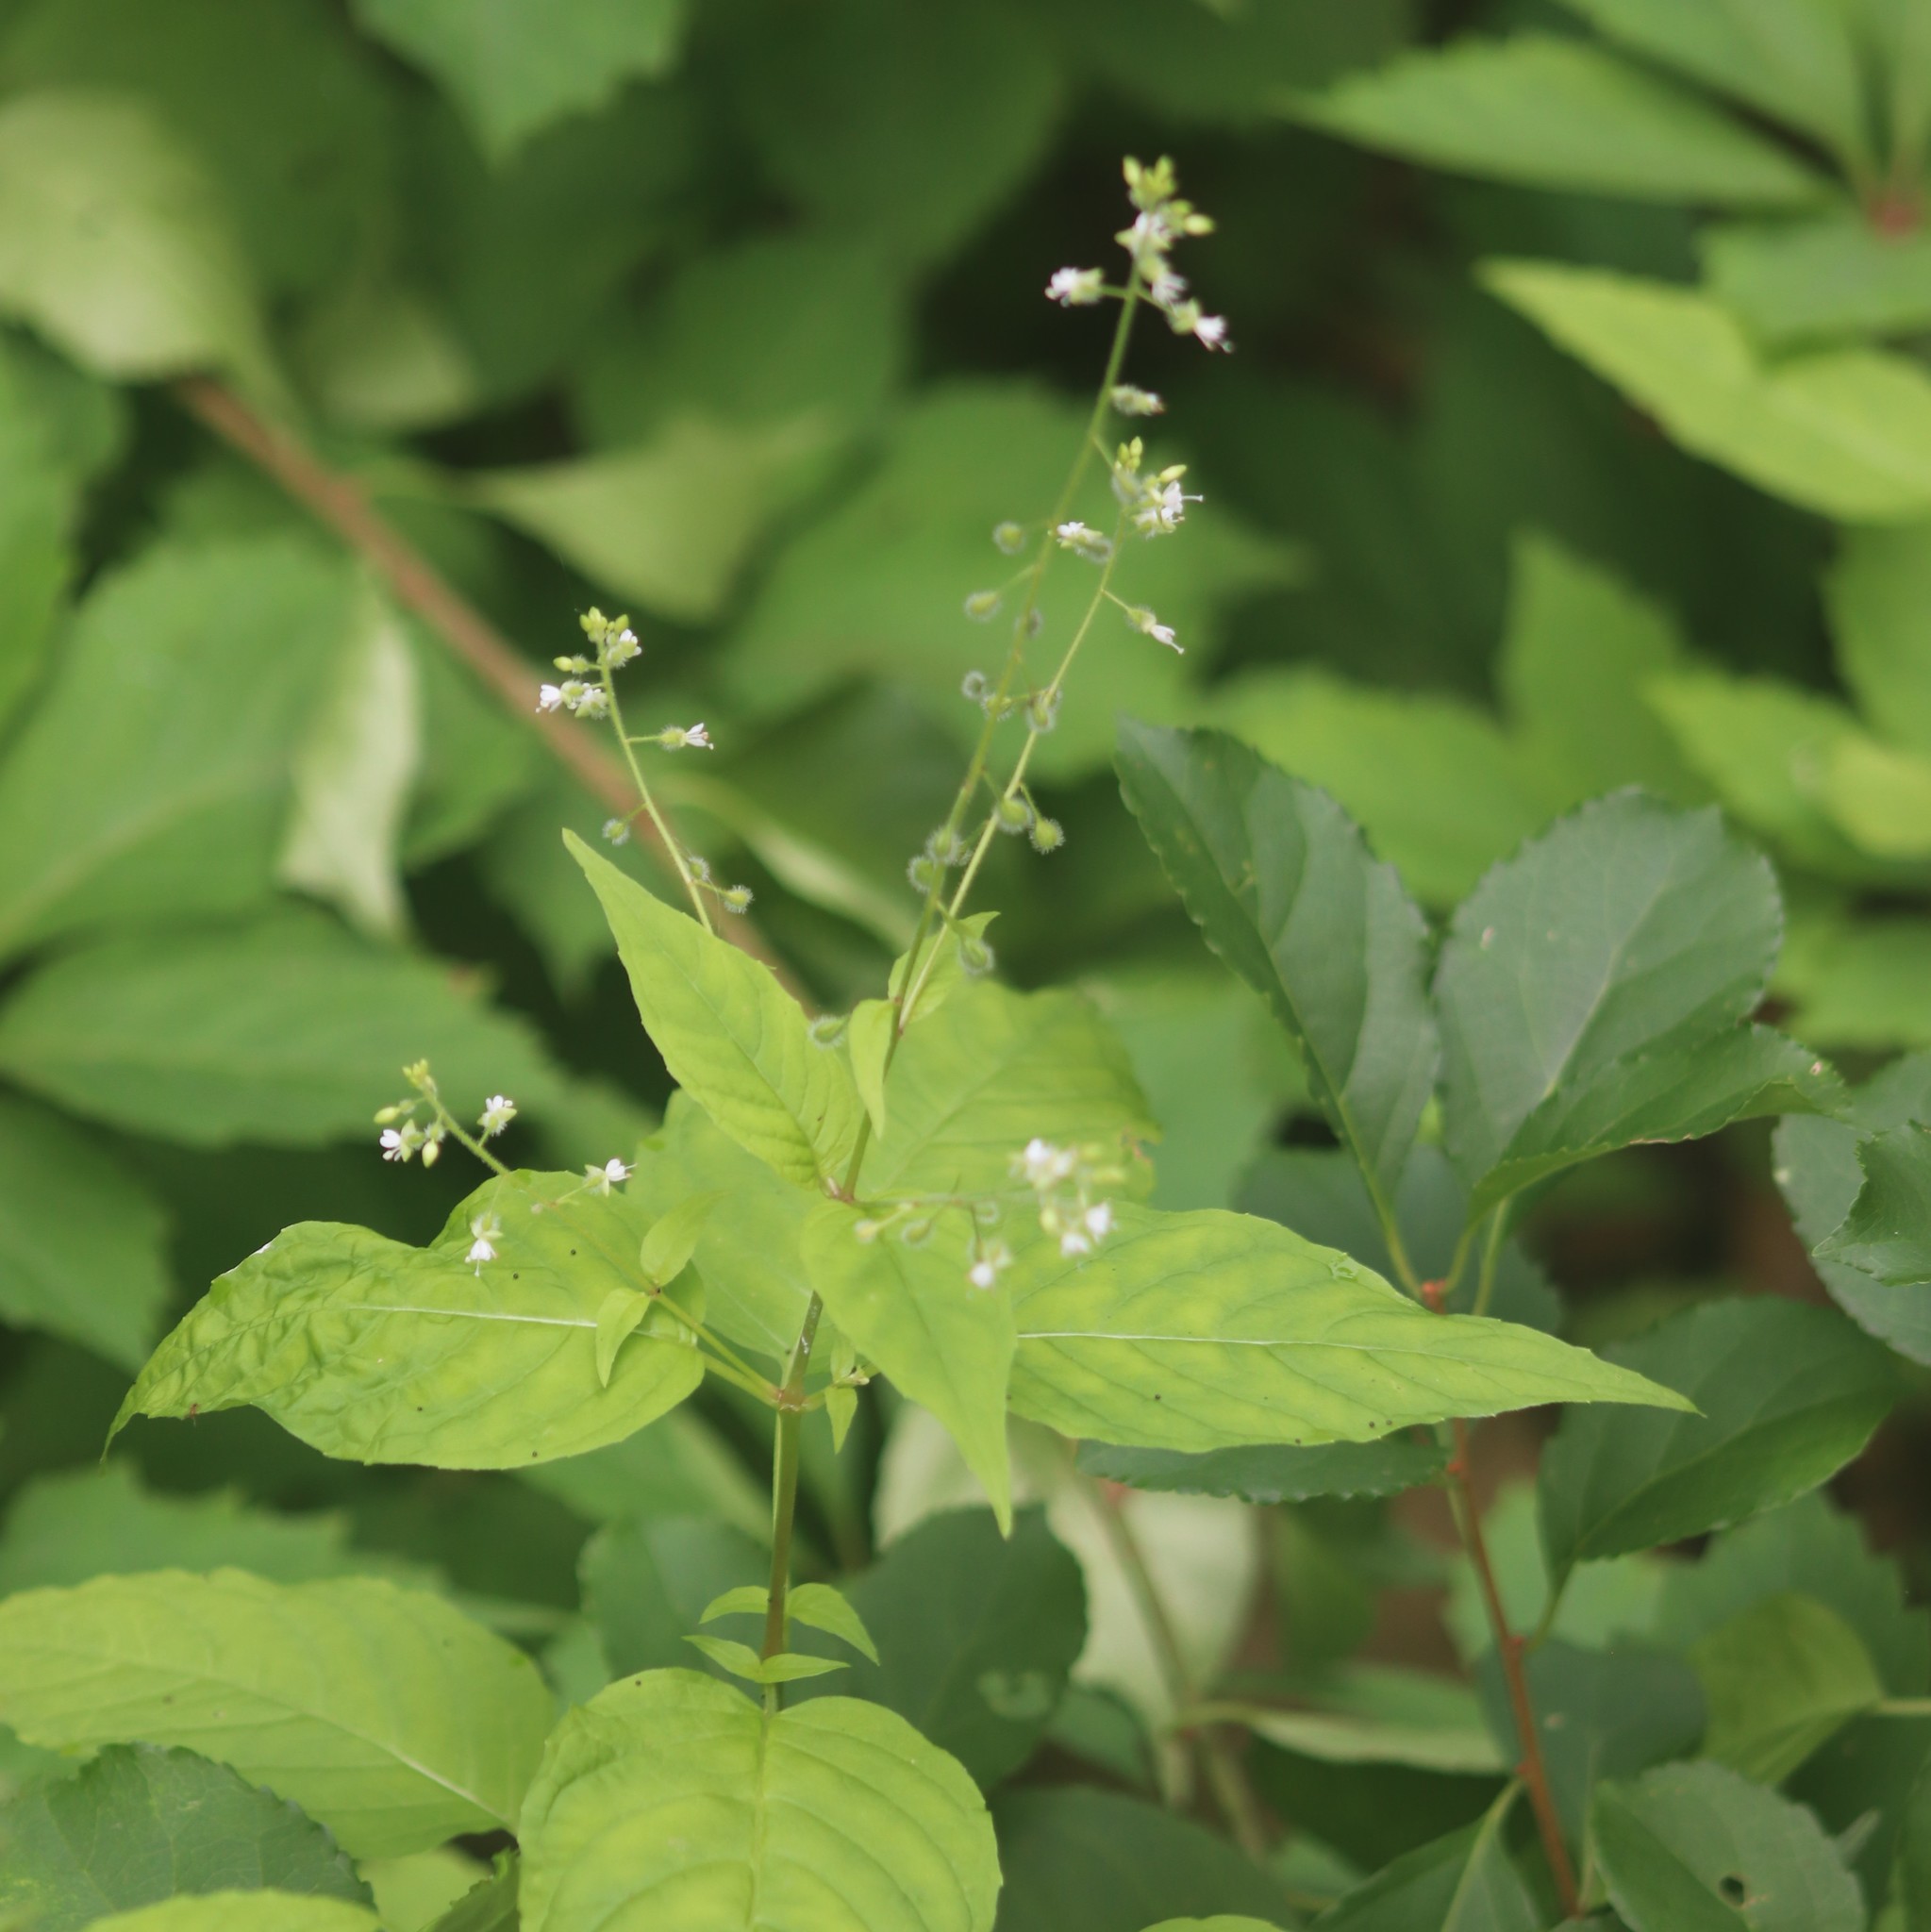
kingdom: Plantae
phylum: Tracheophyta
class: Magnoliopsida
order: Myrtales
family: Onagraceae
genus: Circaea
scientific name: Circaea canadensis
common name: Broad-leaved enchanter's nightshade
